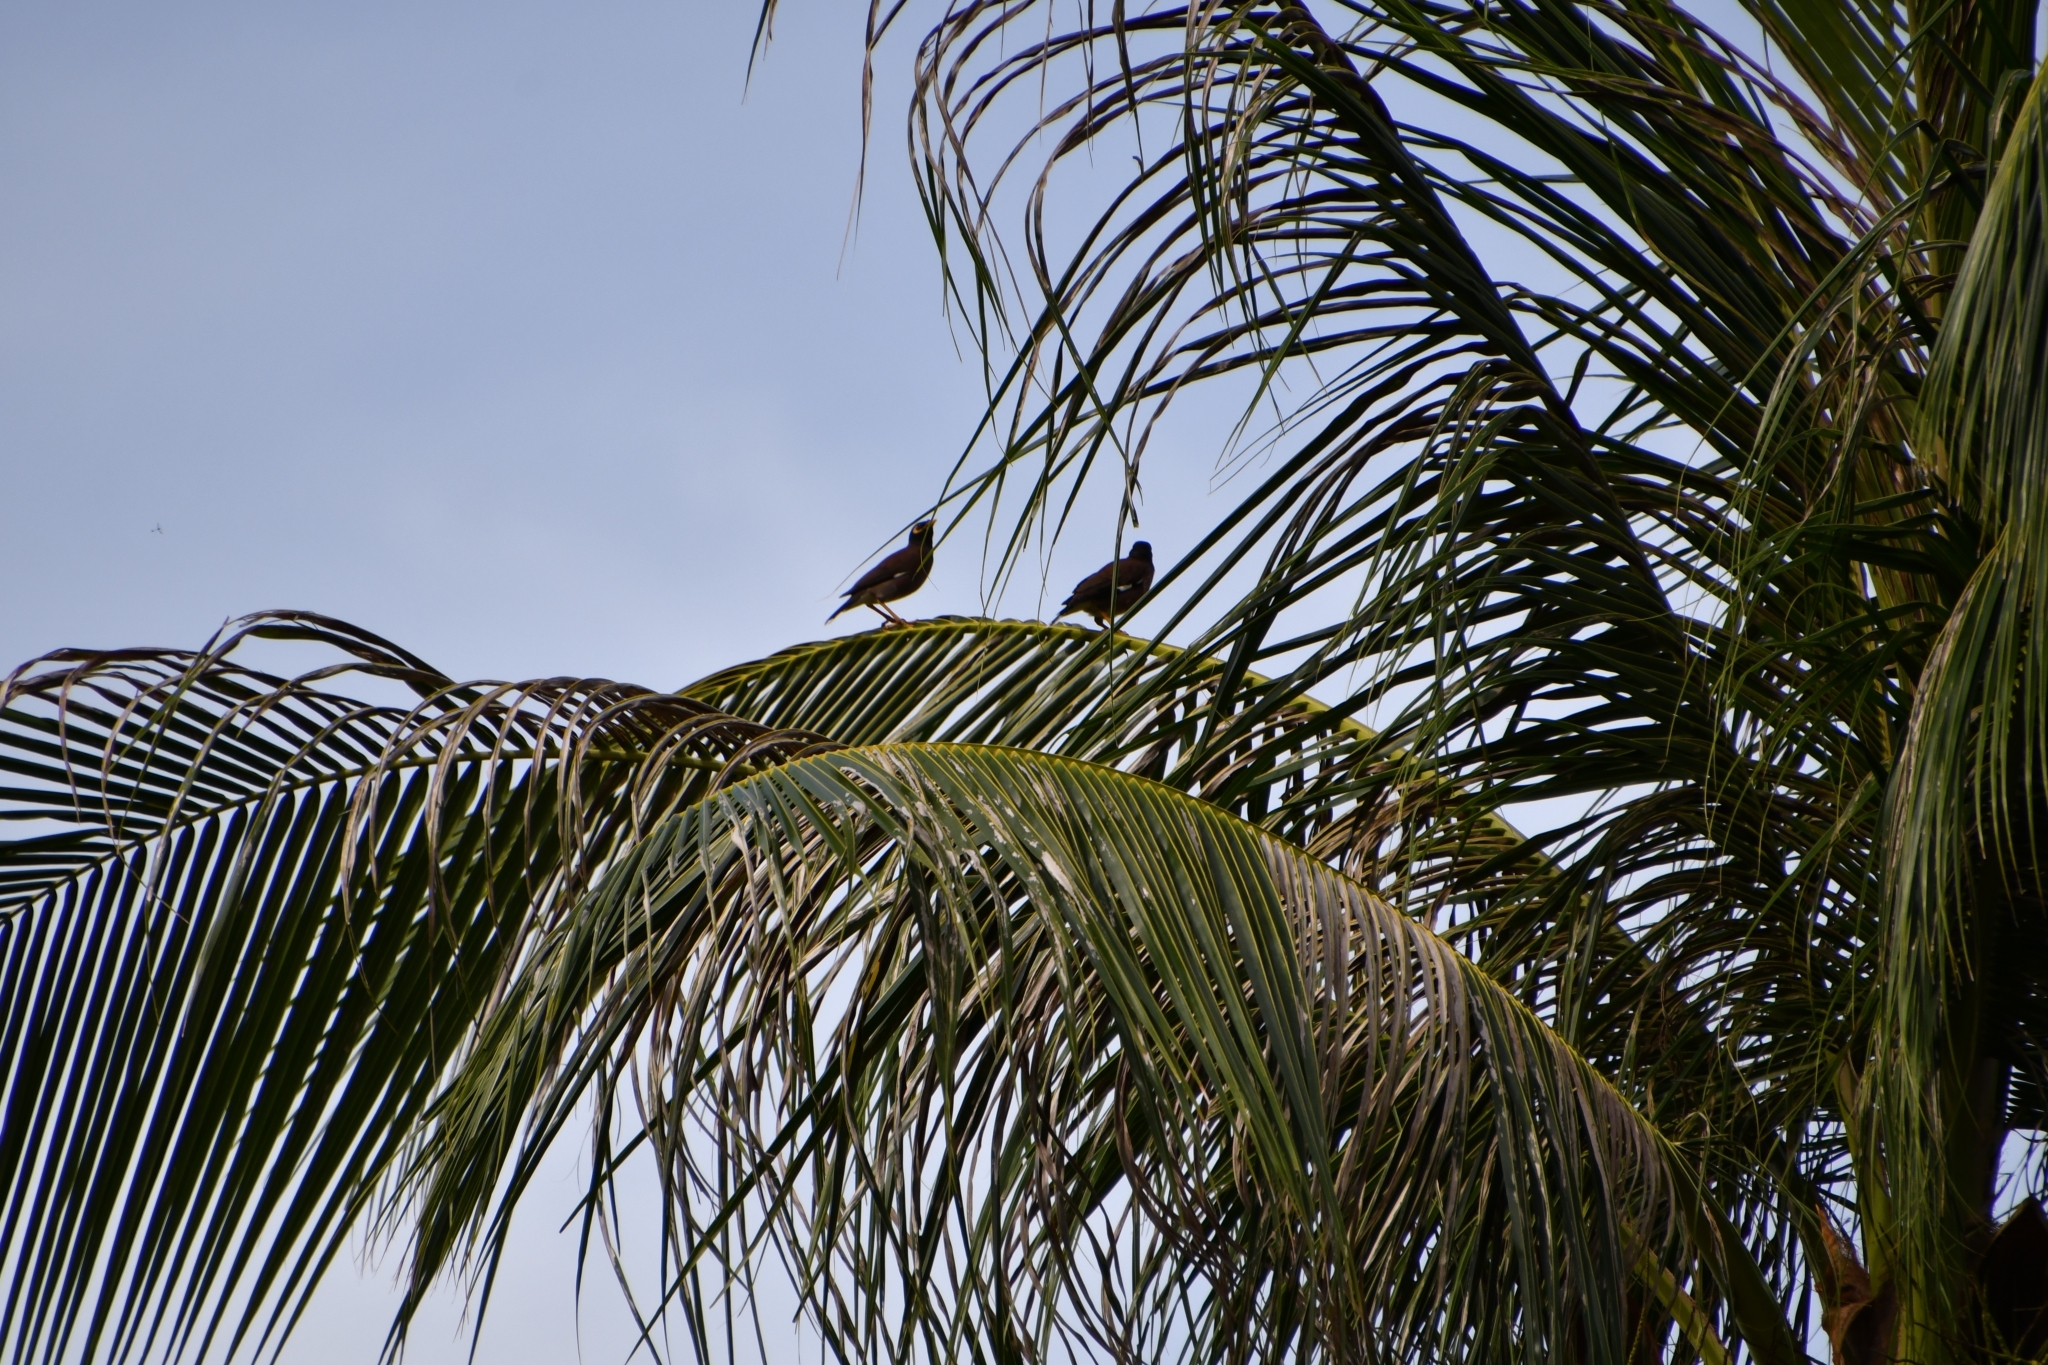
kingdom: Animalia
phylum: Chordata
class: Aves
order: Passeriformes
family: Sturnidae
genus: Acridotheres
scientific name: Acridotheres tristis
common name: Common myna
